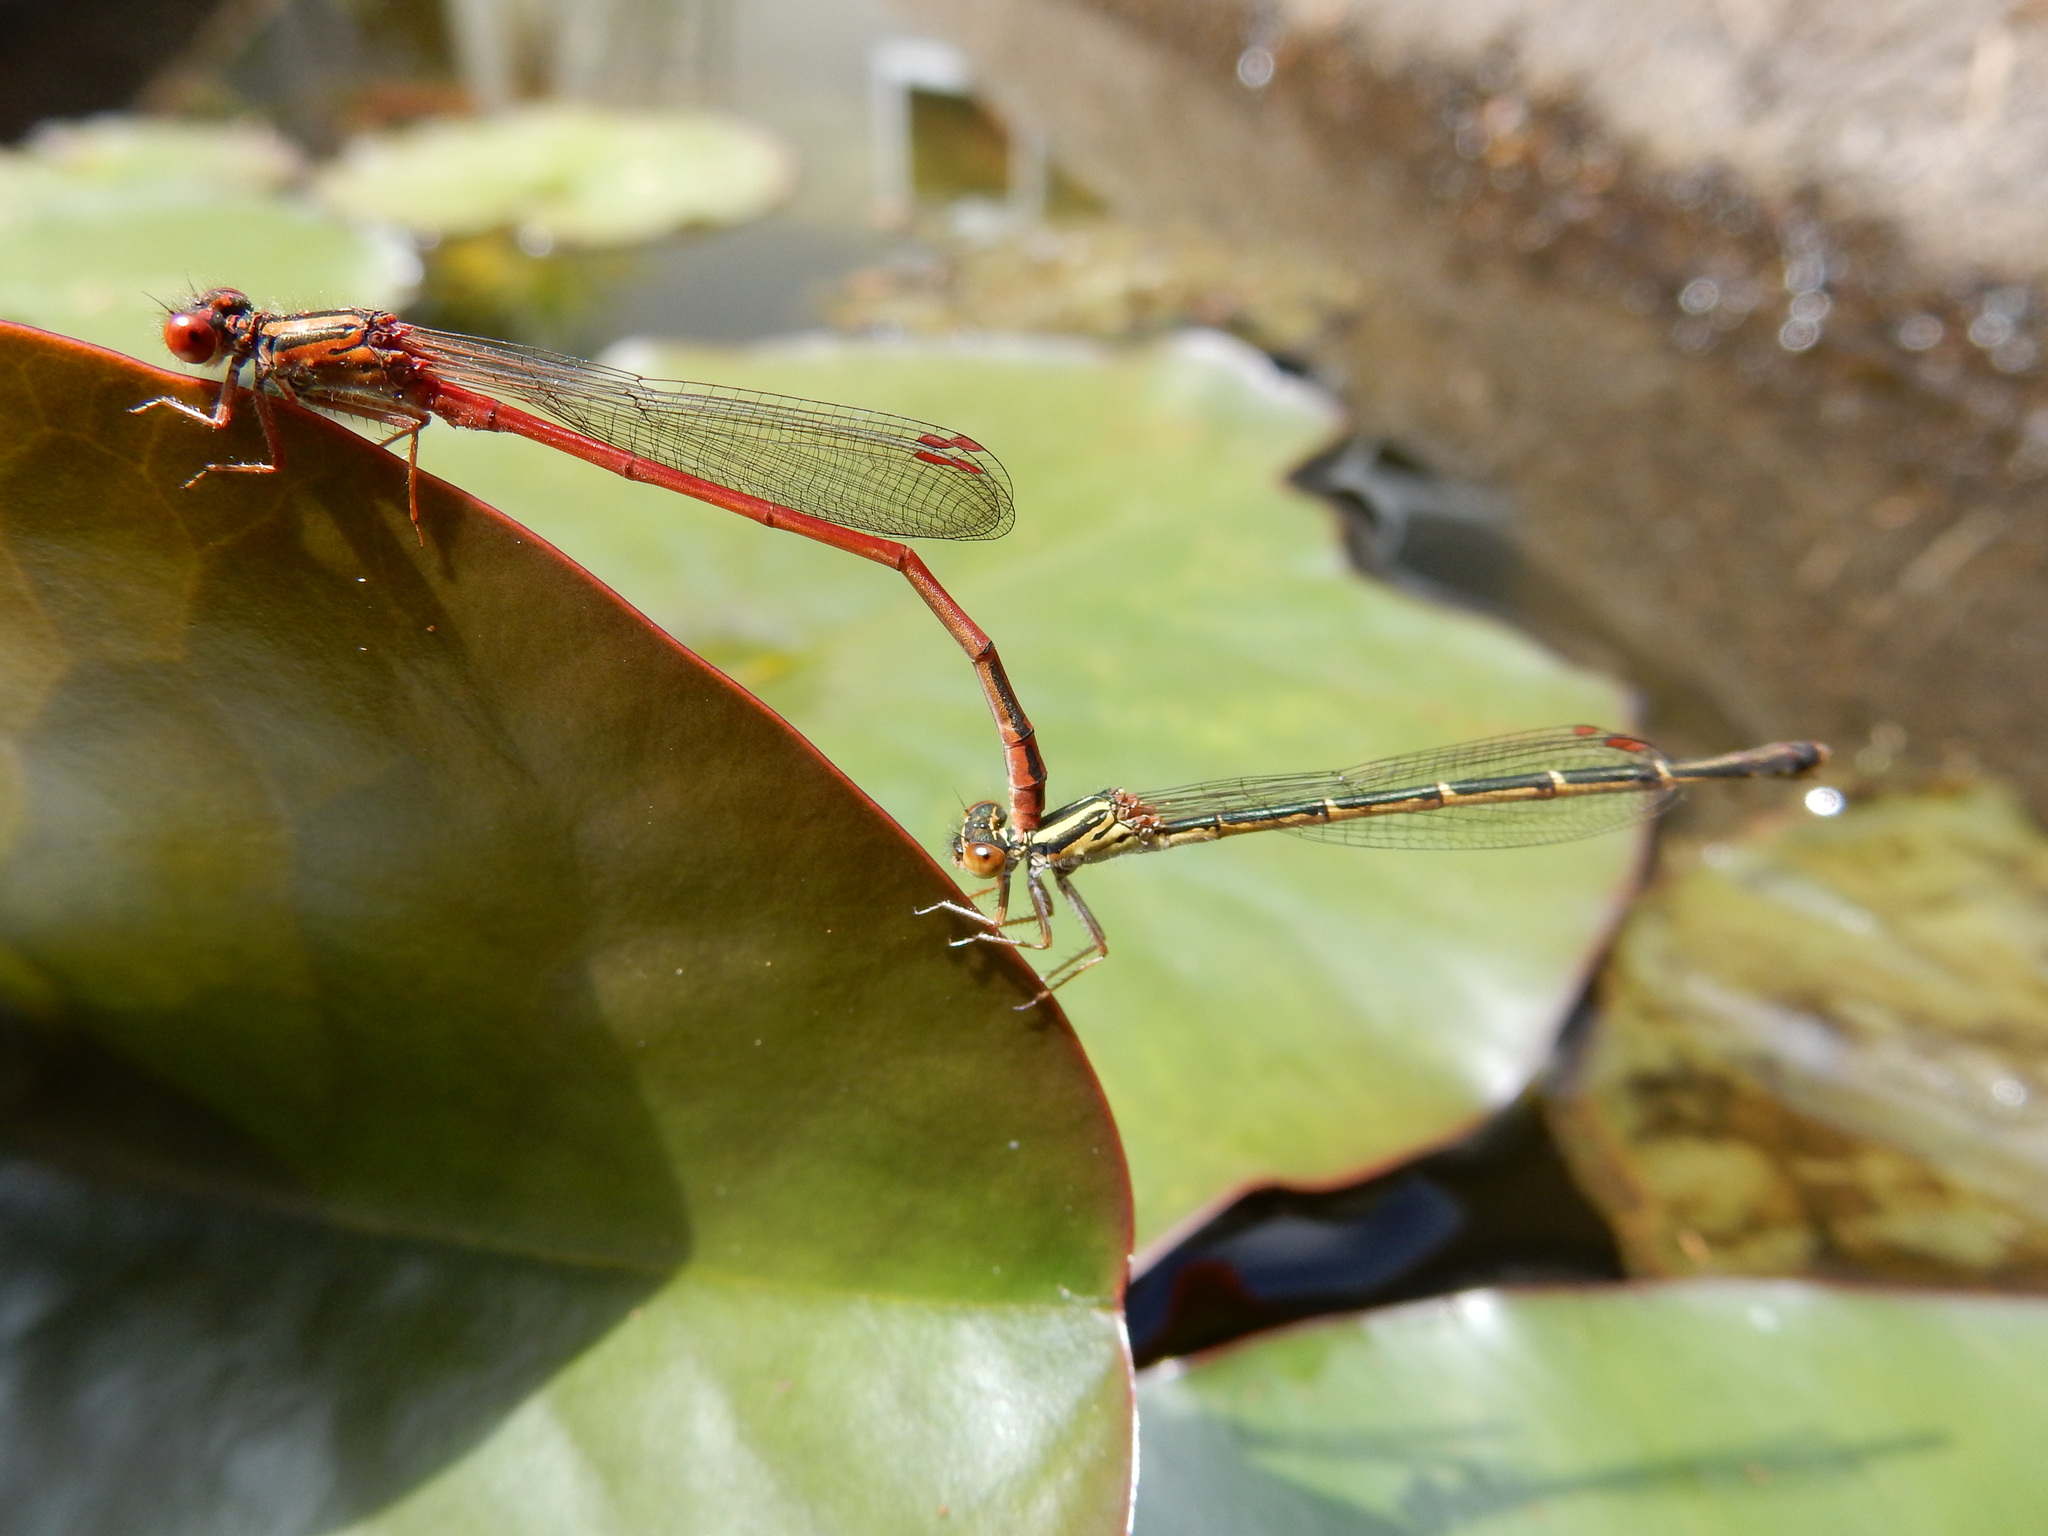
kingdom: Animalia
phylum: Arthropoda
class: Insecta
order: Odonata
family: Coenagrionidae
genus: Xanthocnemis
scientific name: Xanthocnemis zealandica
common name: Common redcoat damselfly
